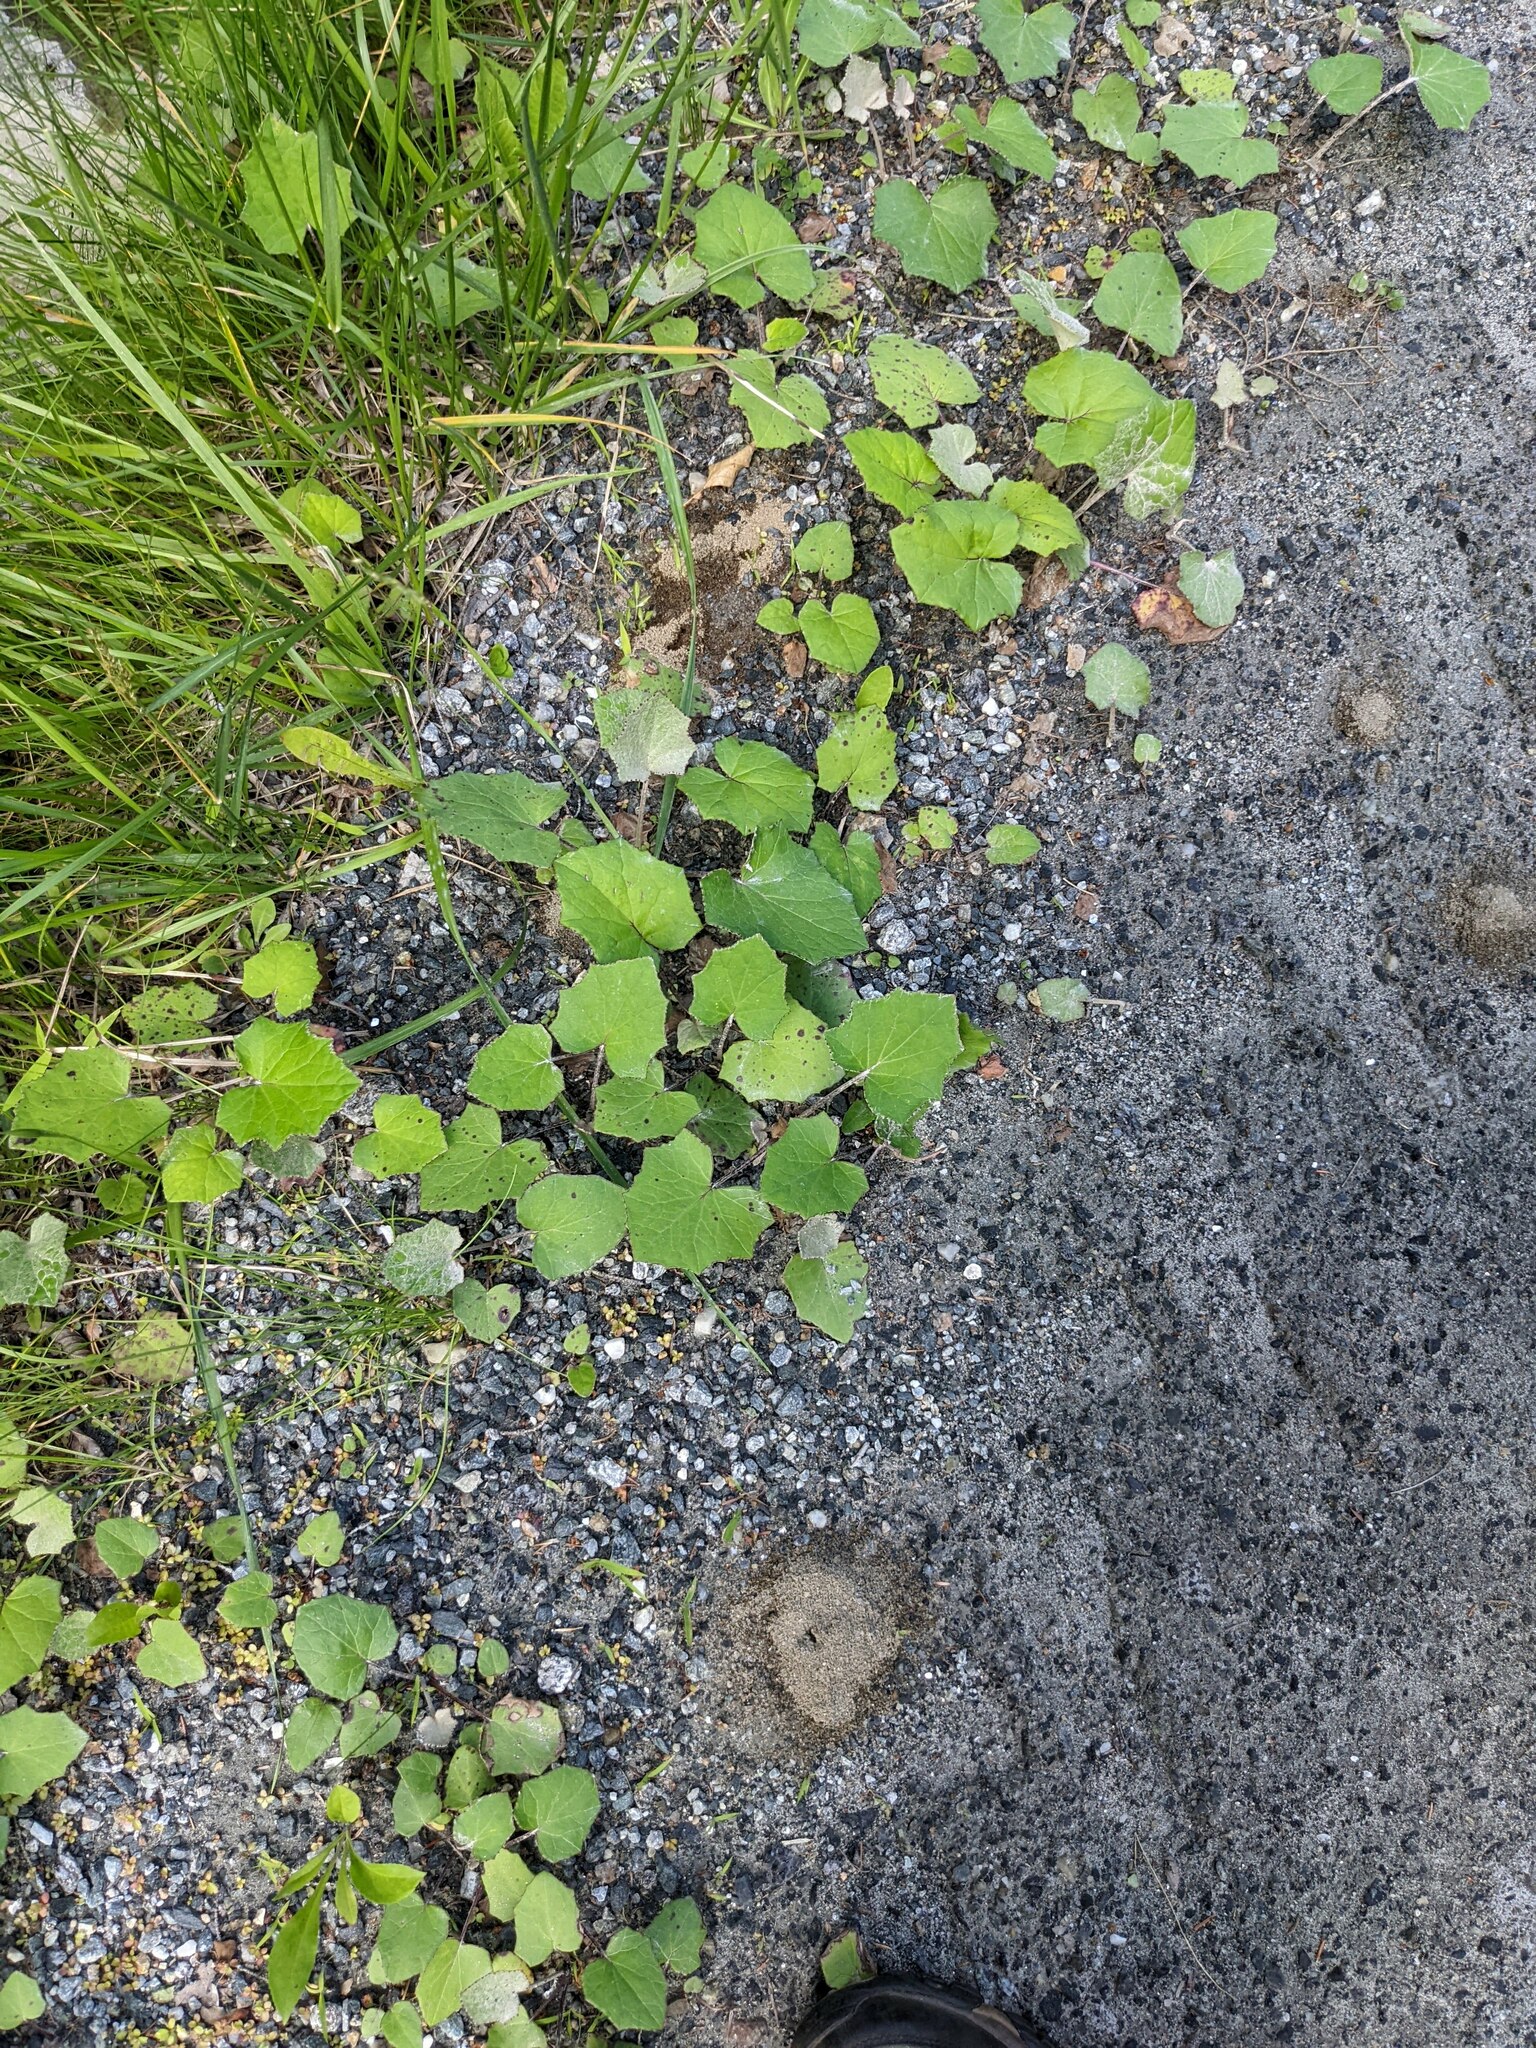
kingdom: Plantae
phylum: Tracheophyta
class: Magnoliopsida
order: Asterales
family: Asteraceae
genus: Tussilago
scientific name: Tussilago farfara
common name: Coltsfoot
